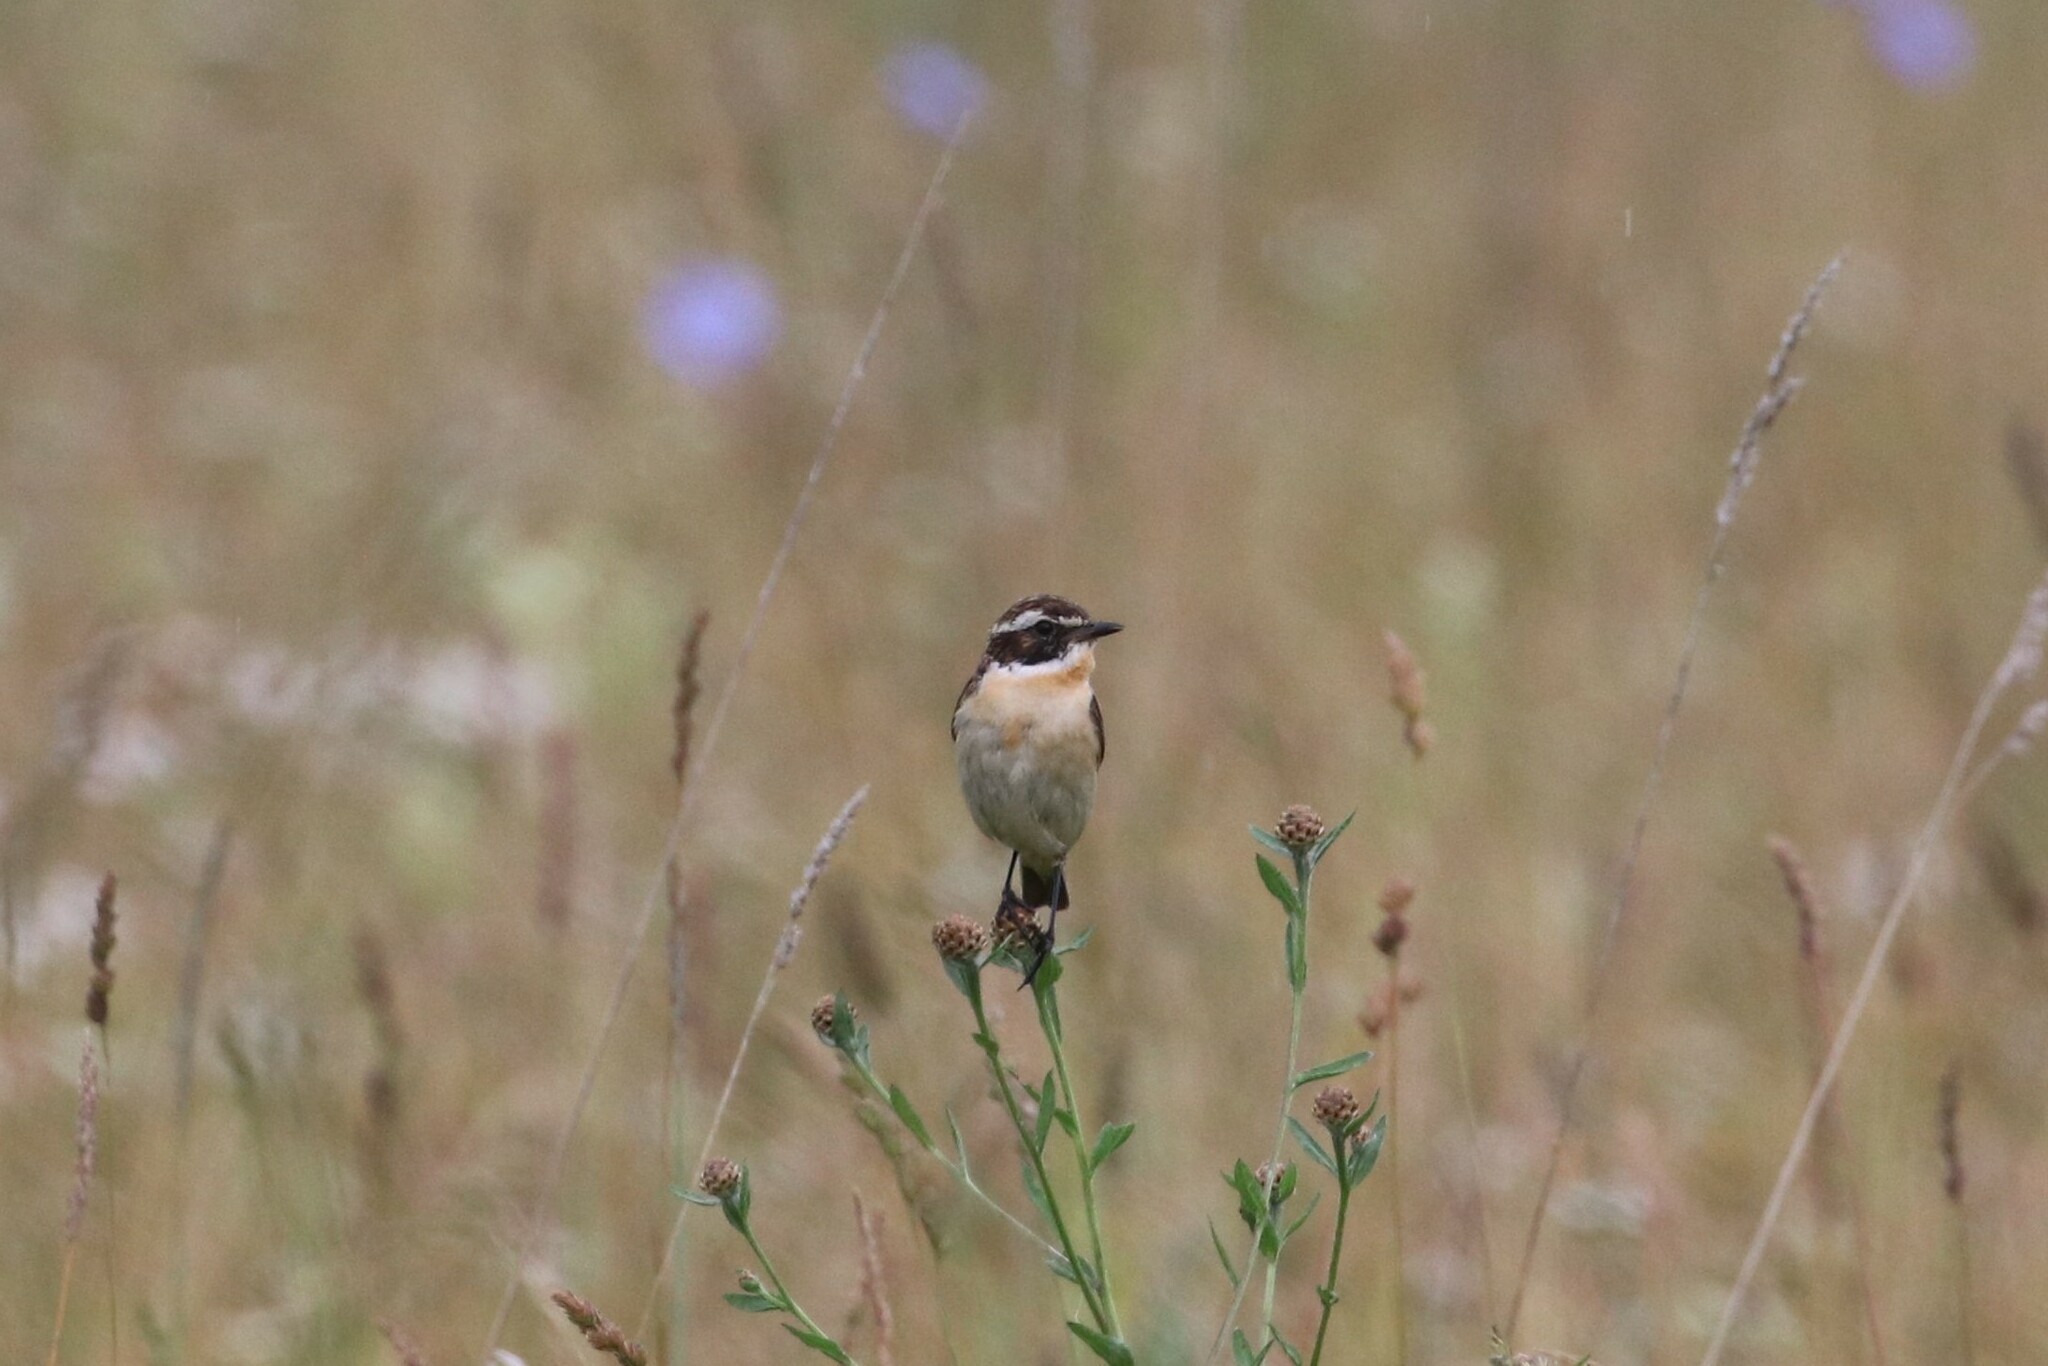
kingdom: Animalia
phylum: Chordata
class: Aves
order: Passeriformes
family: Muscicapidae
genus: Saxicola
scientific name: Saxicola rubetra
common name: Whinchat
